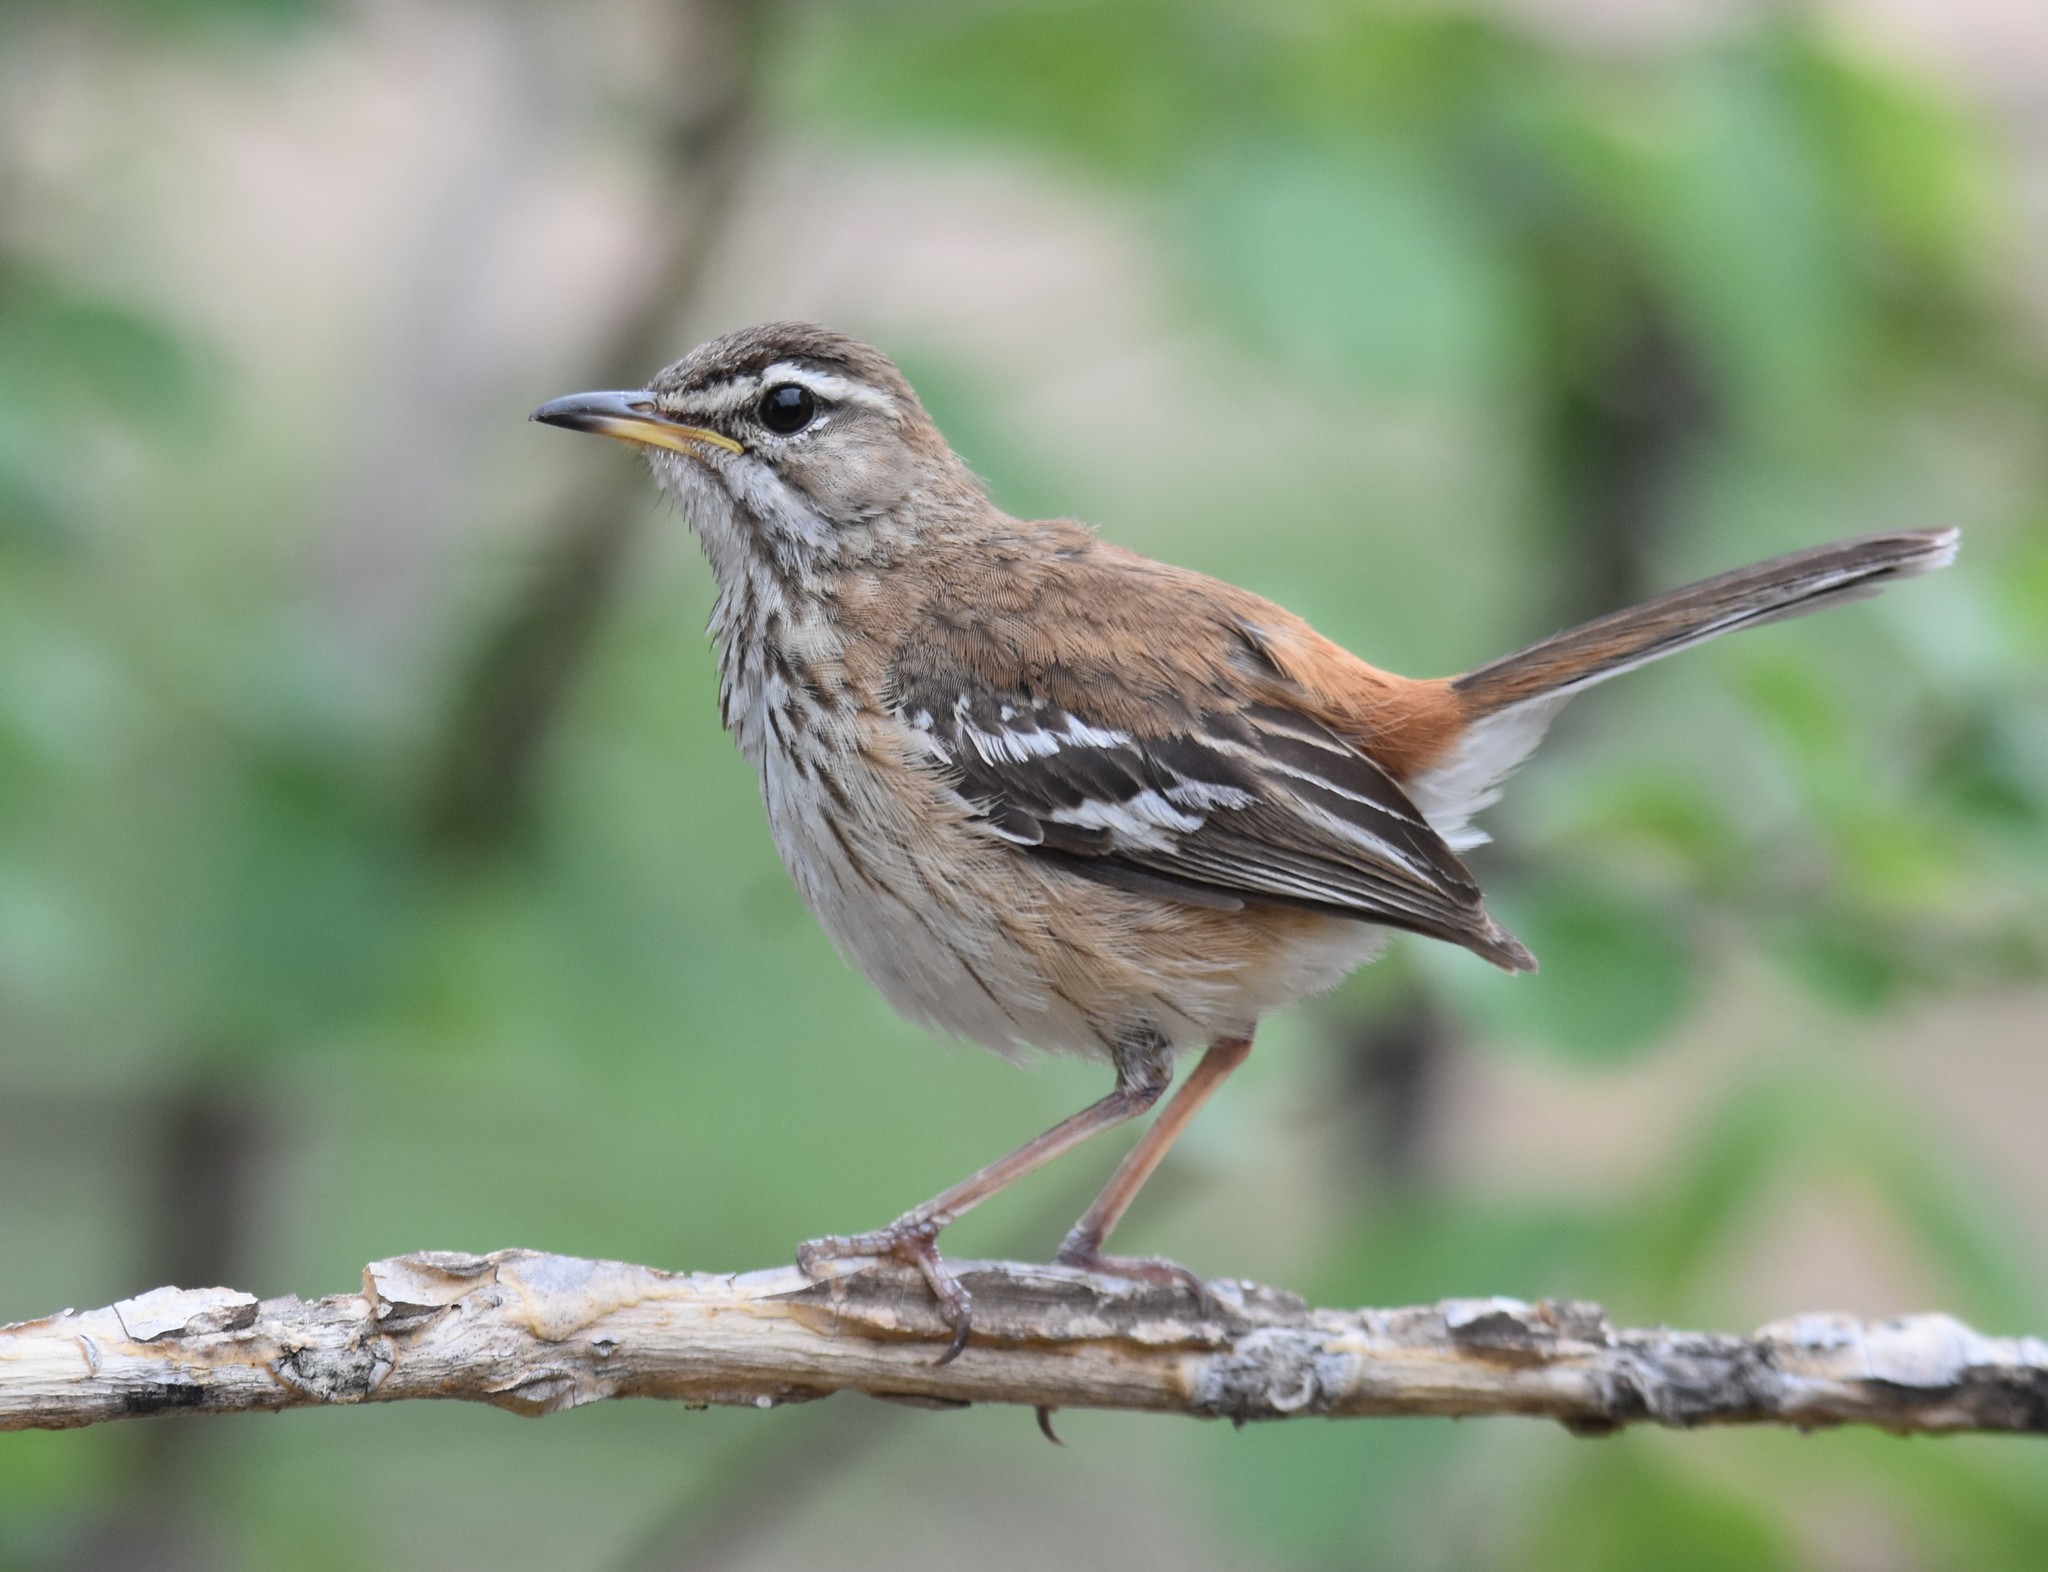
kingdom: Animalia
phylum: Chordata
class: Aves
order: Passeriformes
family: Muscicapidae
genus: Erythropygia
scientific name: Erythropygia leucophrys
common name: White-browed scrub robin
